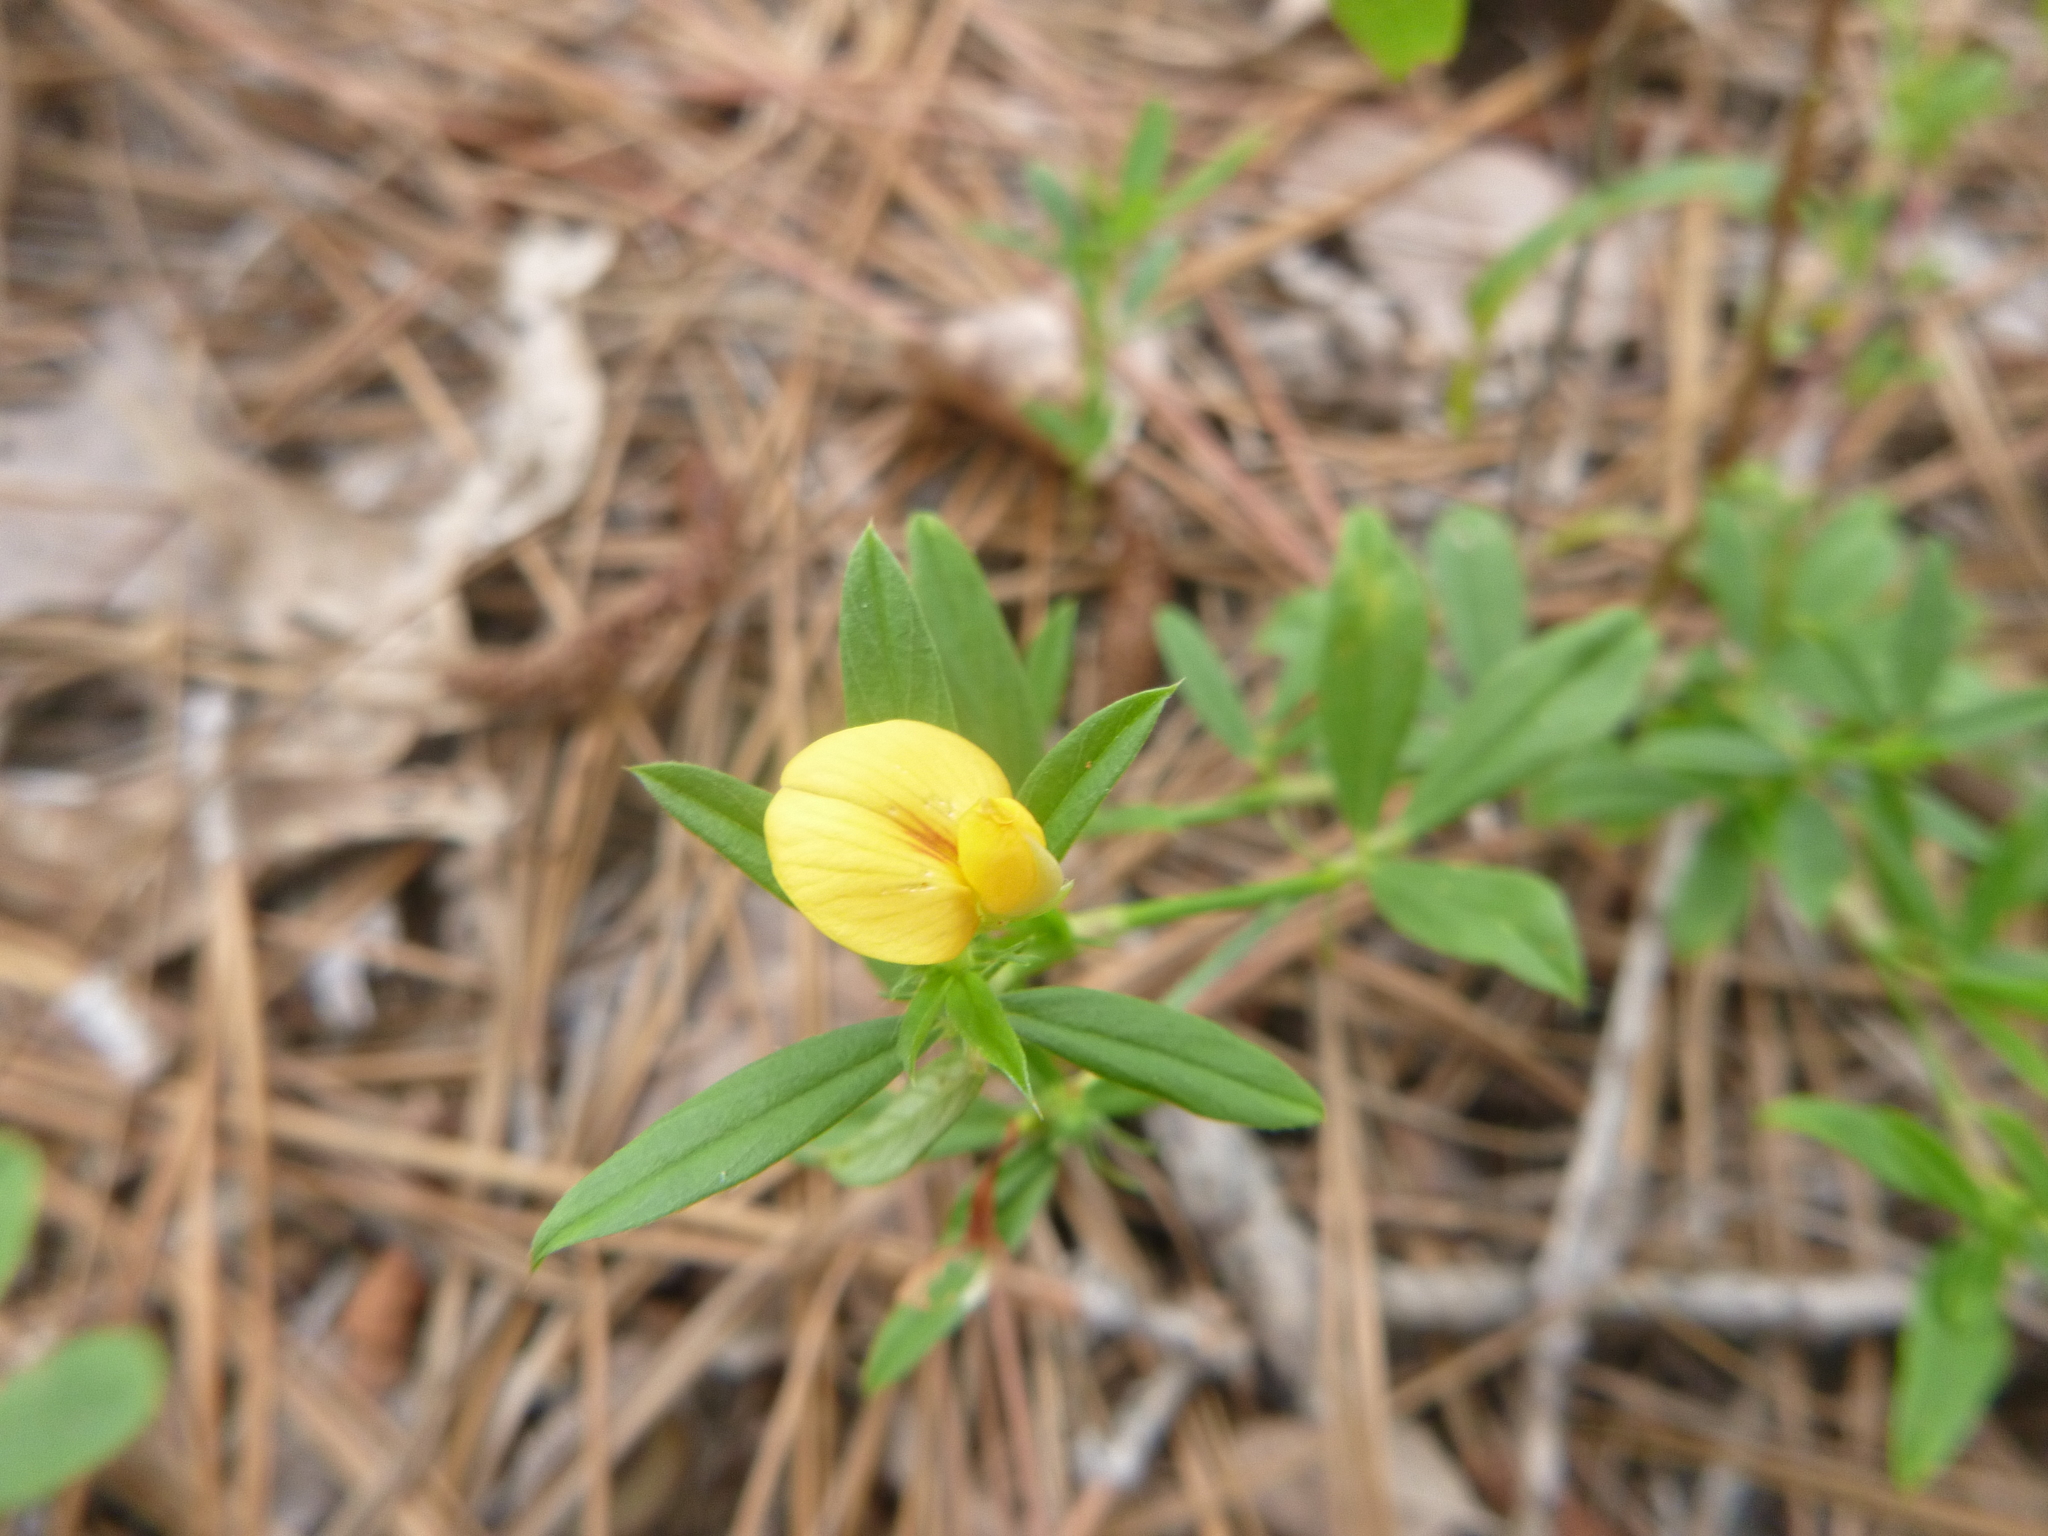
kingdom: Plantae
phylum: Tracheophyta
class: Magnoliopsida
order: Fabales
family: Fabaceae
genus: Stylosanthes
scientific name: Stylosanthes biflora
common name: Two-flower pencil-flower
